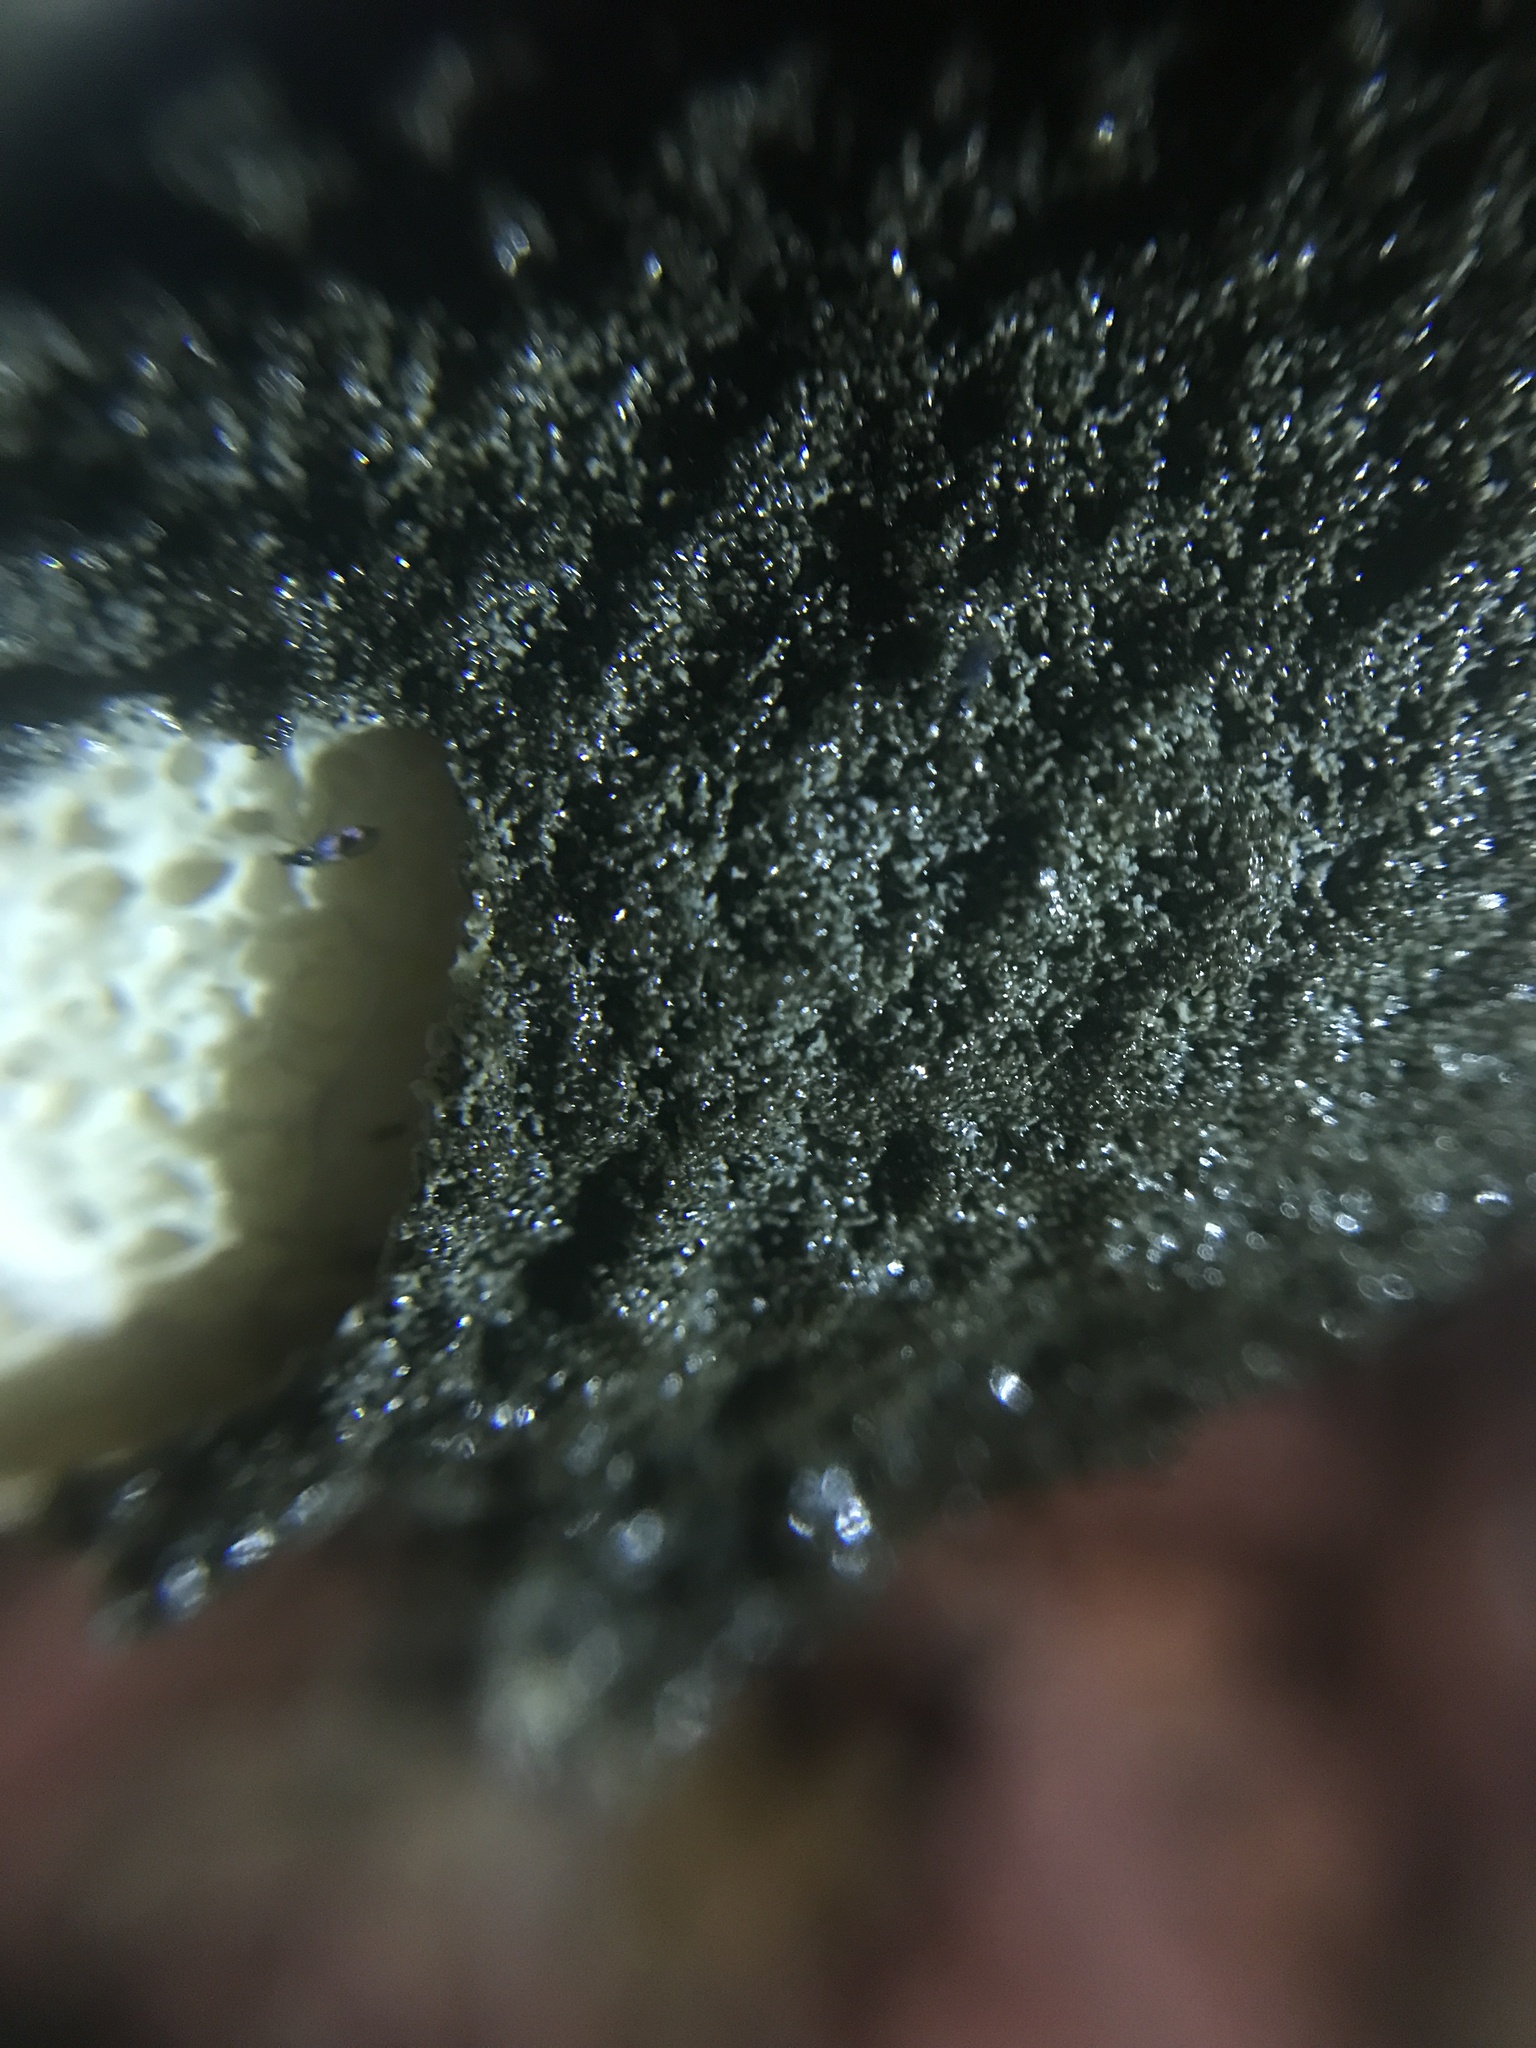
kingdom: Fungi
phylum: Basidiomycota
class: Agaricomycetes
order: Phallales
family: Phallaceae
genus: Phallus
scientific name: Phallus ravenelii
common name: Ravenel's stinkhorn
